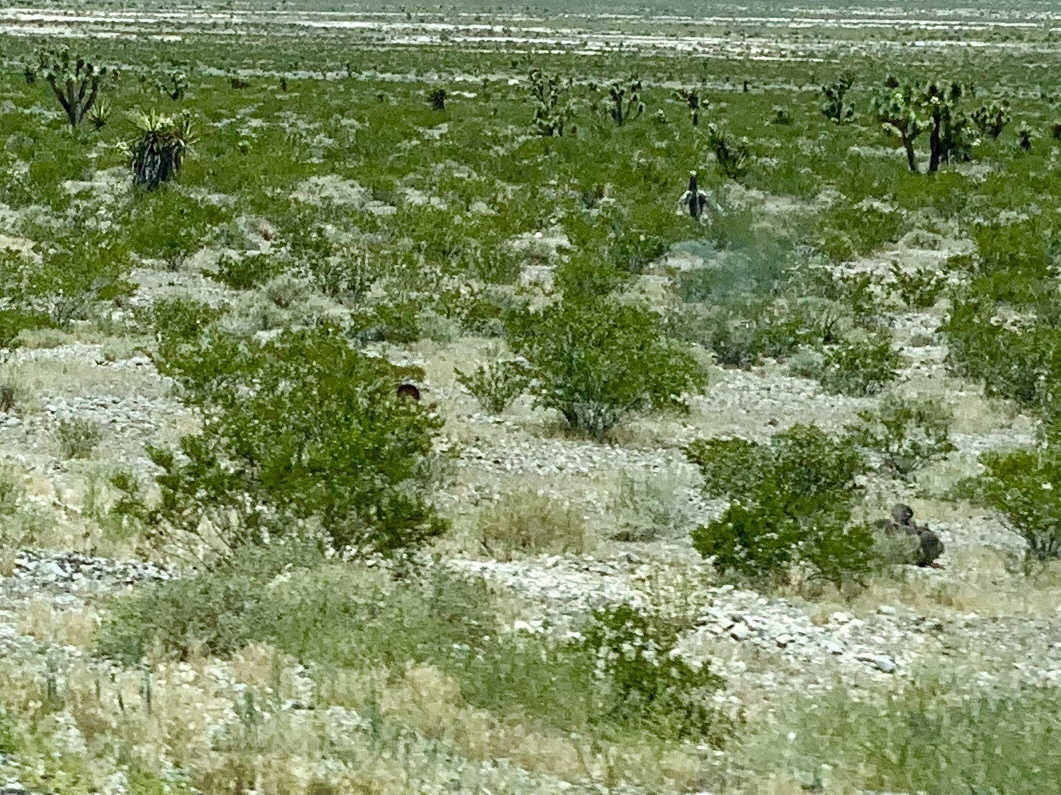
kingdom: Plantae
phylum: Tracheophyta
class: Magnoliopsida
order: Zygophyllales
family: Zygophyllaceae
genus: Larrea
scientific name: Larrea tridentata
